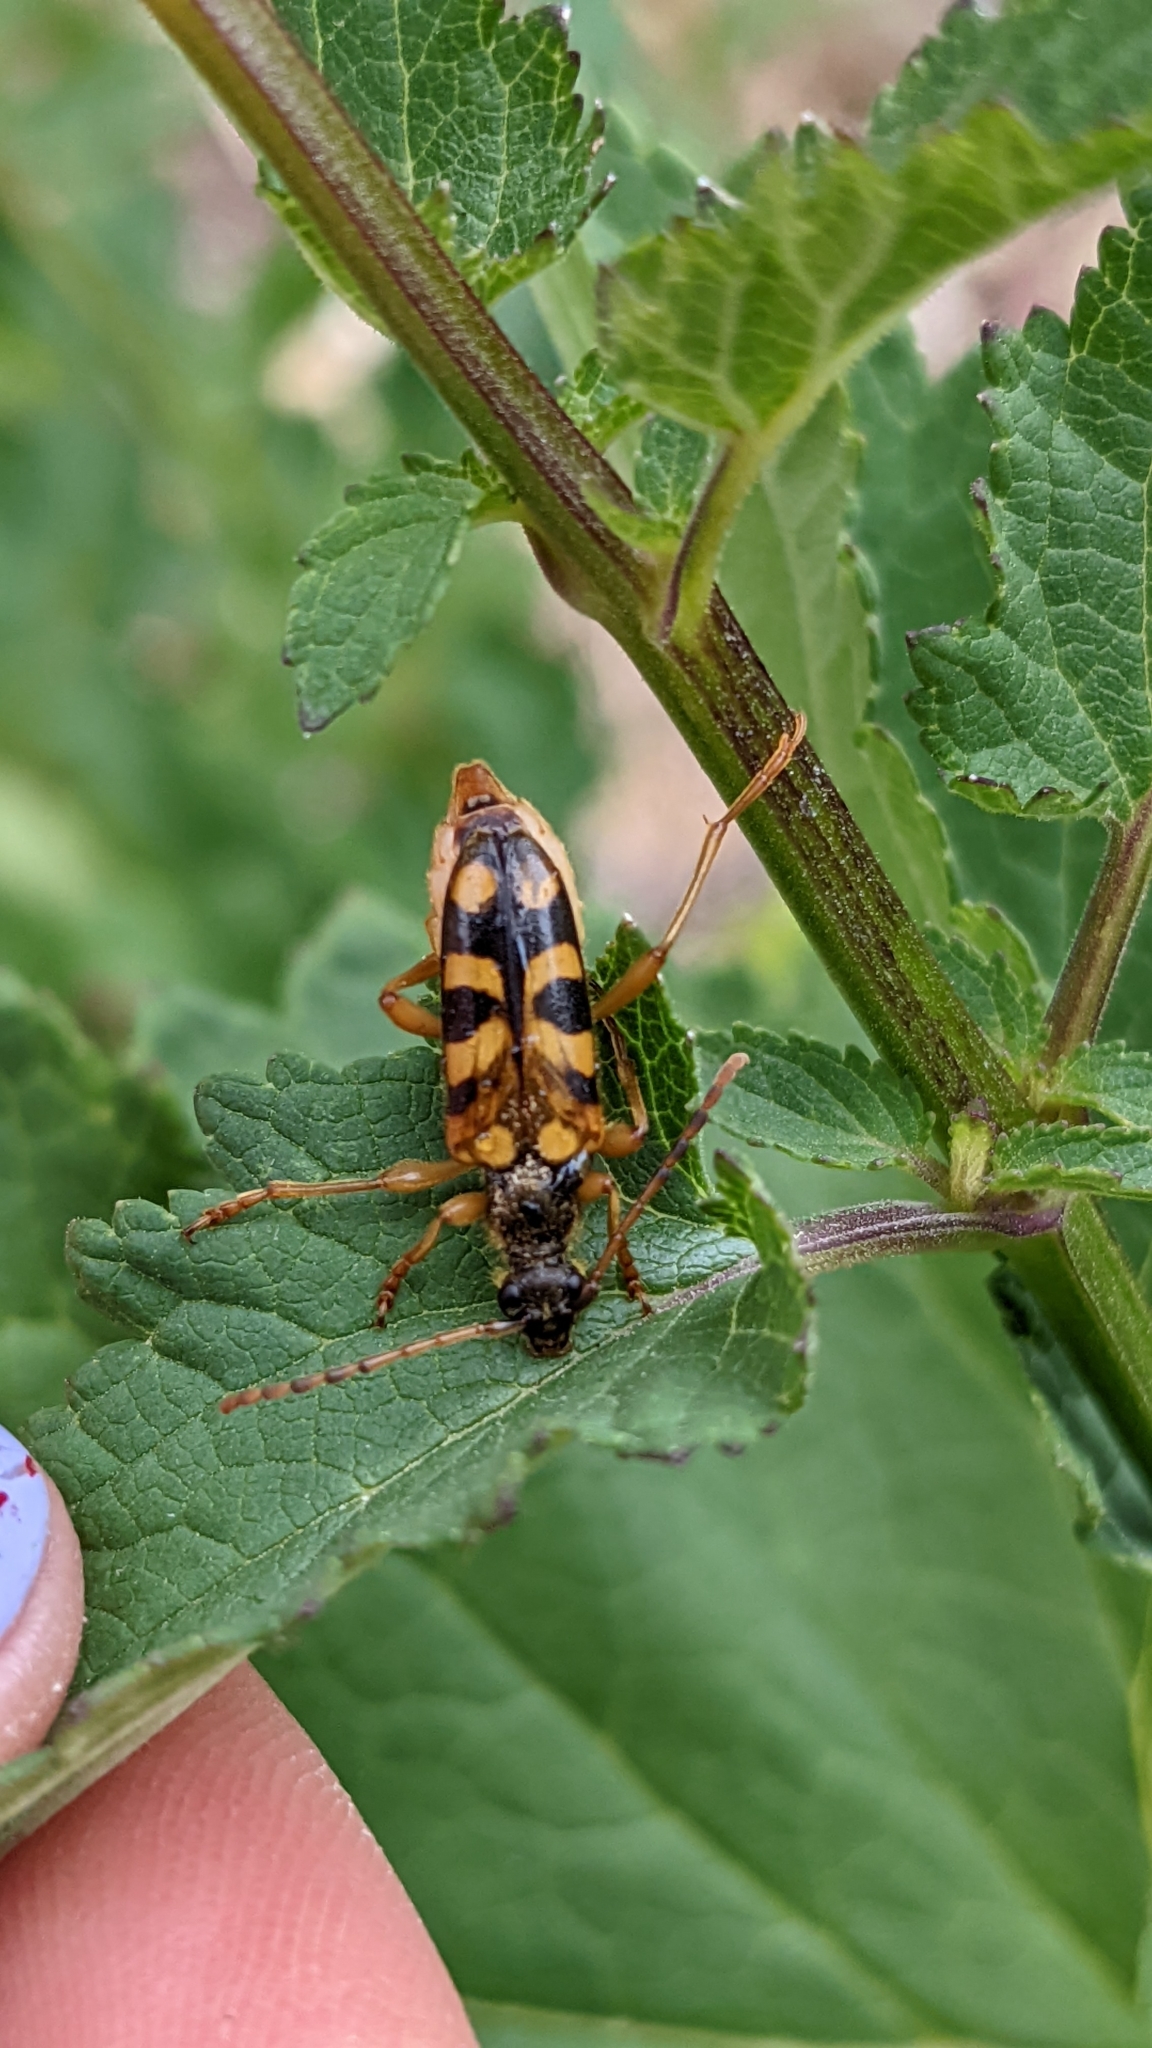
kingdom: Animalia
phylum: Arthropoda
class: Insecta
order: Coleoptera
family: Cerambycidae
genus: Xestoleptura
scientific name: Xestoleptura crassipes
